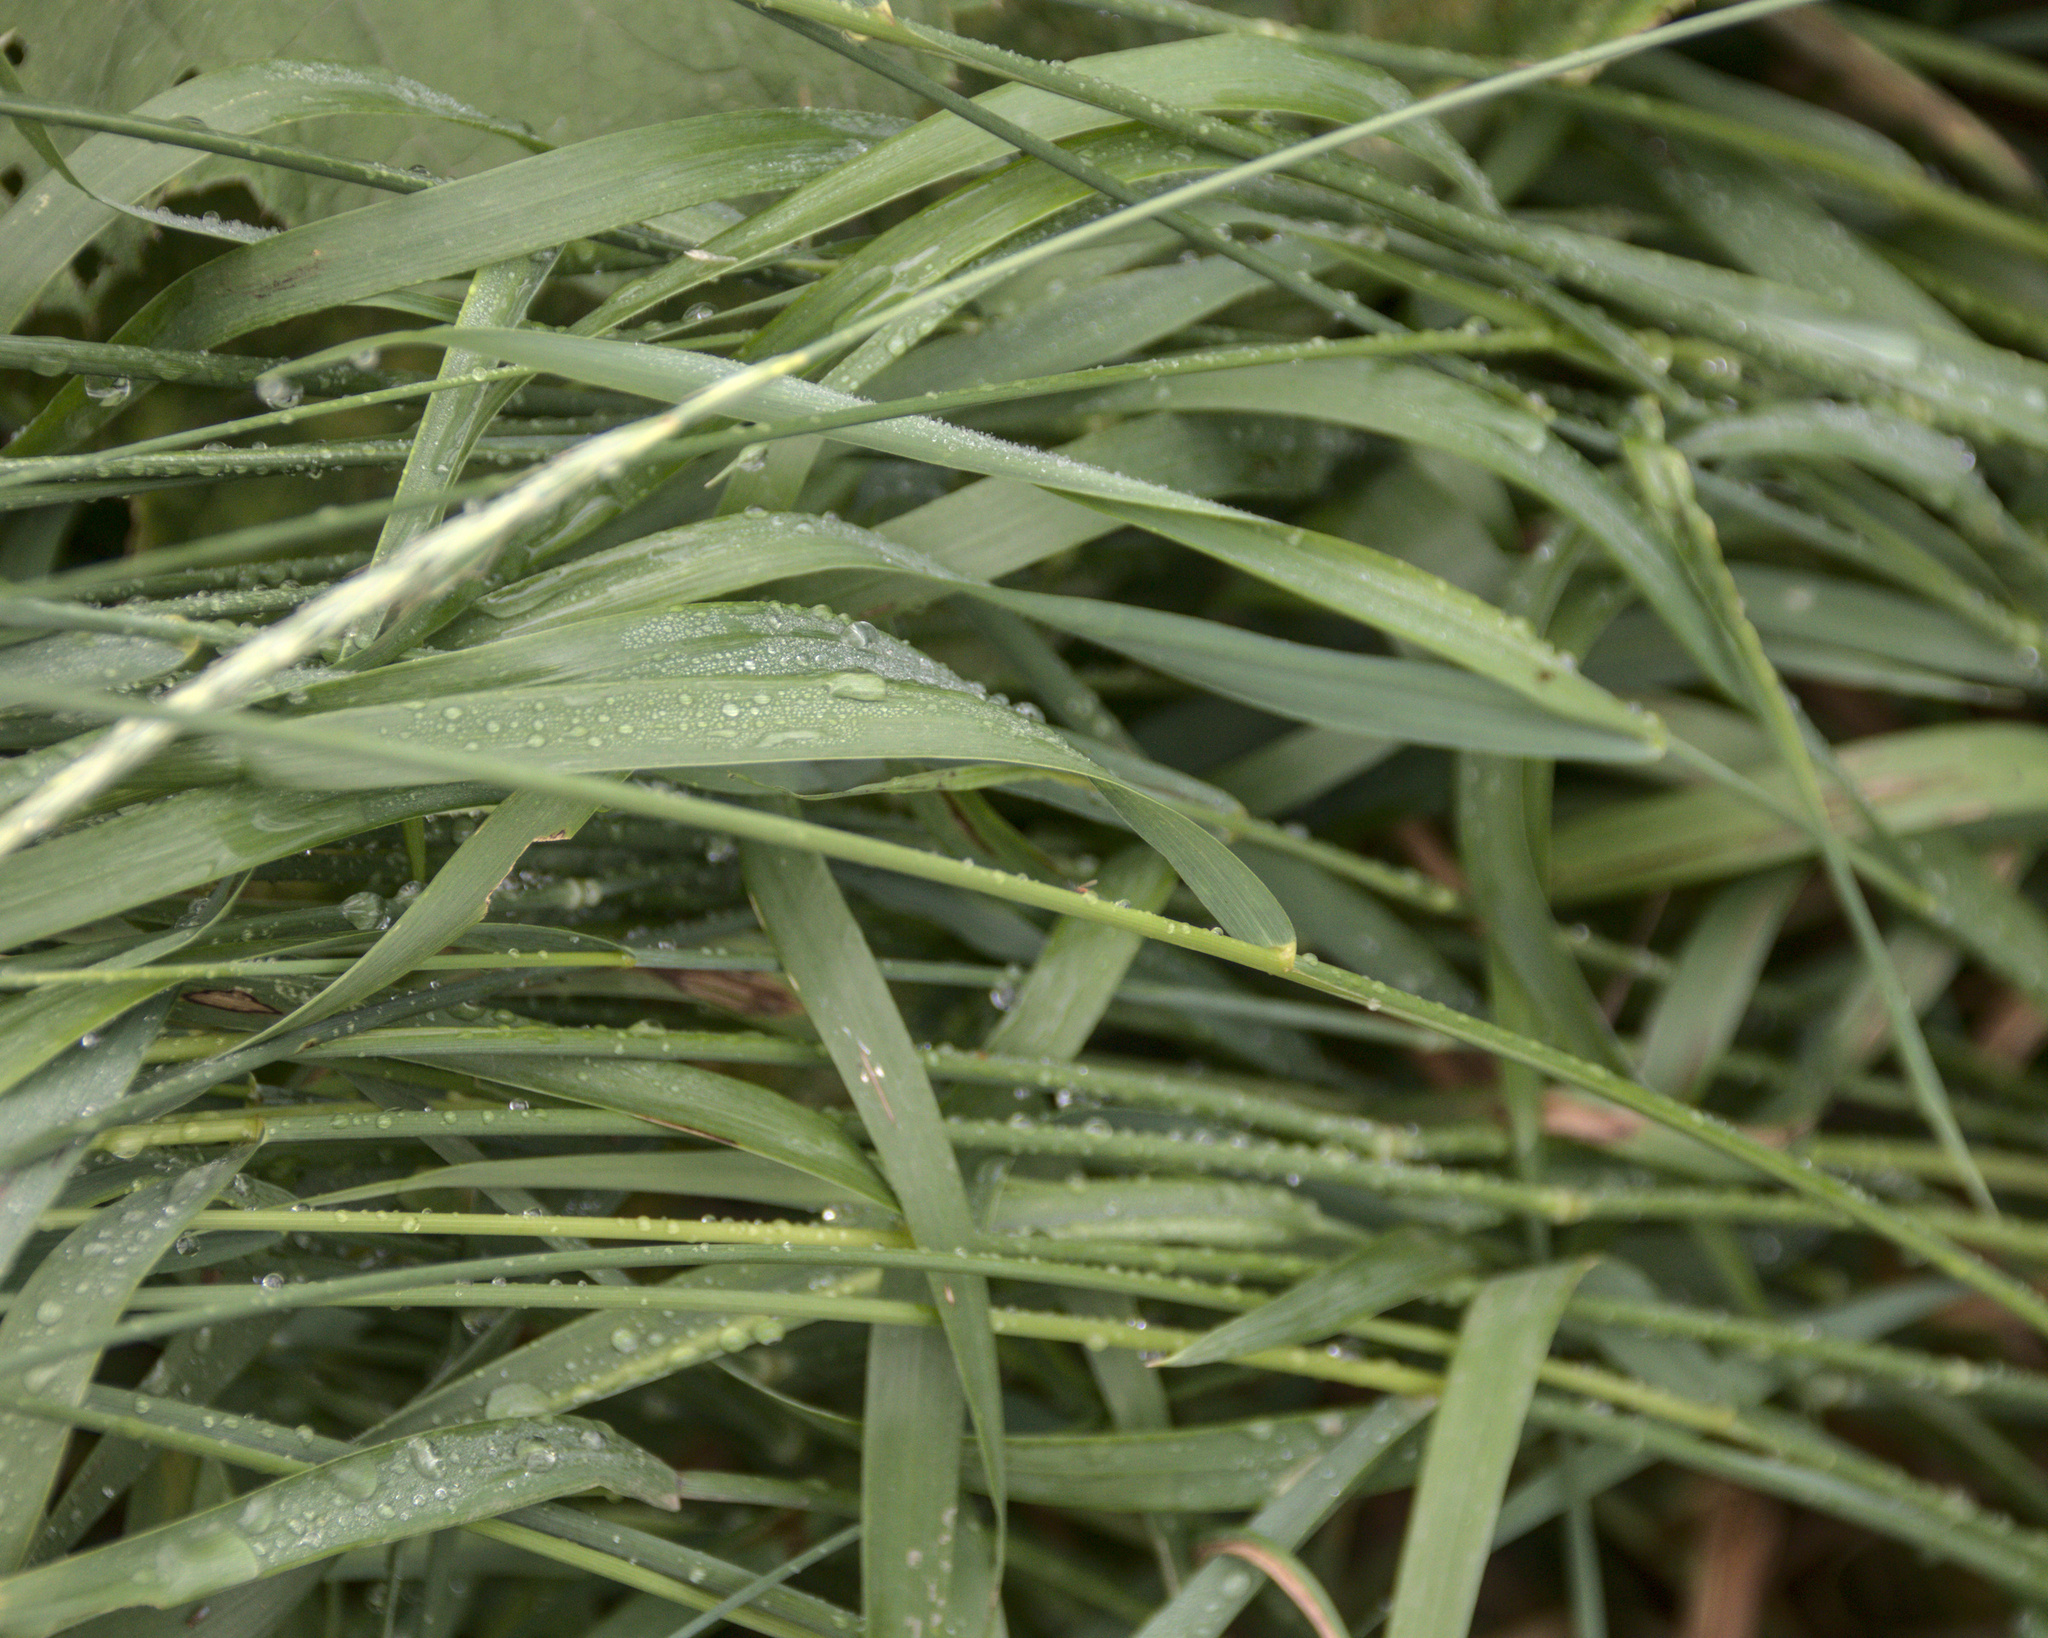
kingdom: Plantae
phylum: Tracheophyta
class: Liliopsida
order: Poales
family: Poaceae
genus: Elymus
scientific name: Elymus repens
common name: Quackgrass
